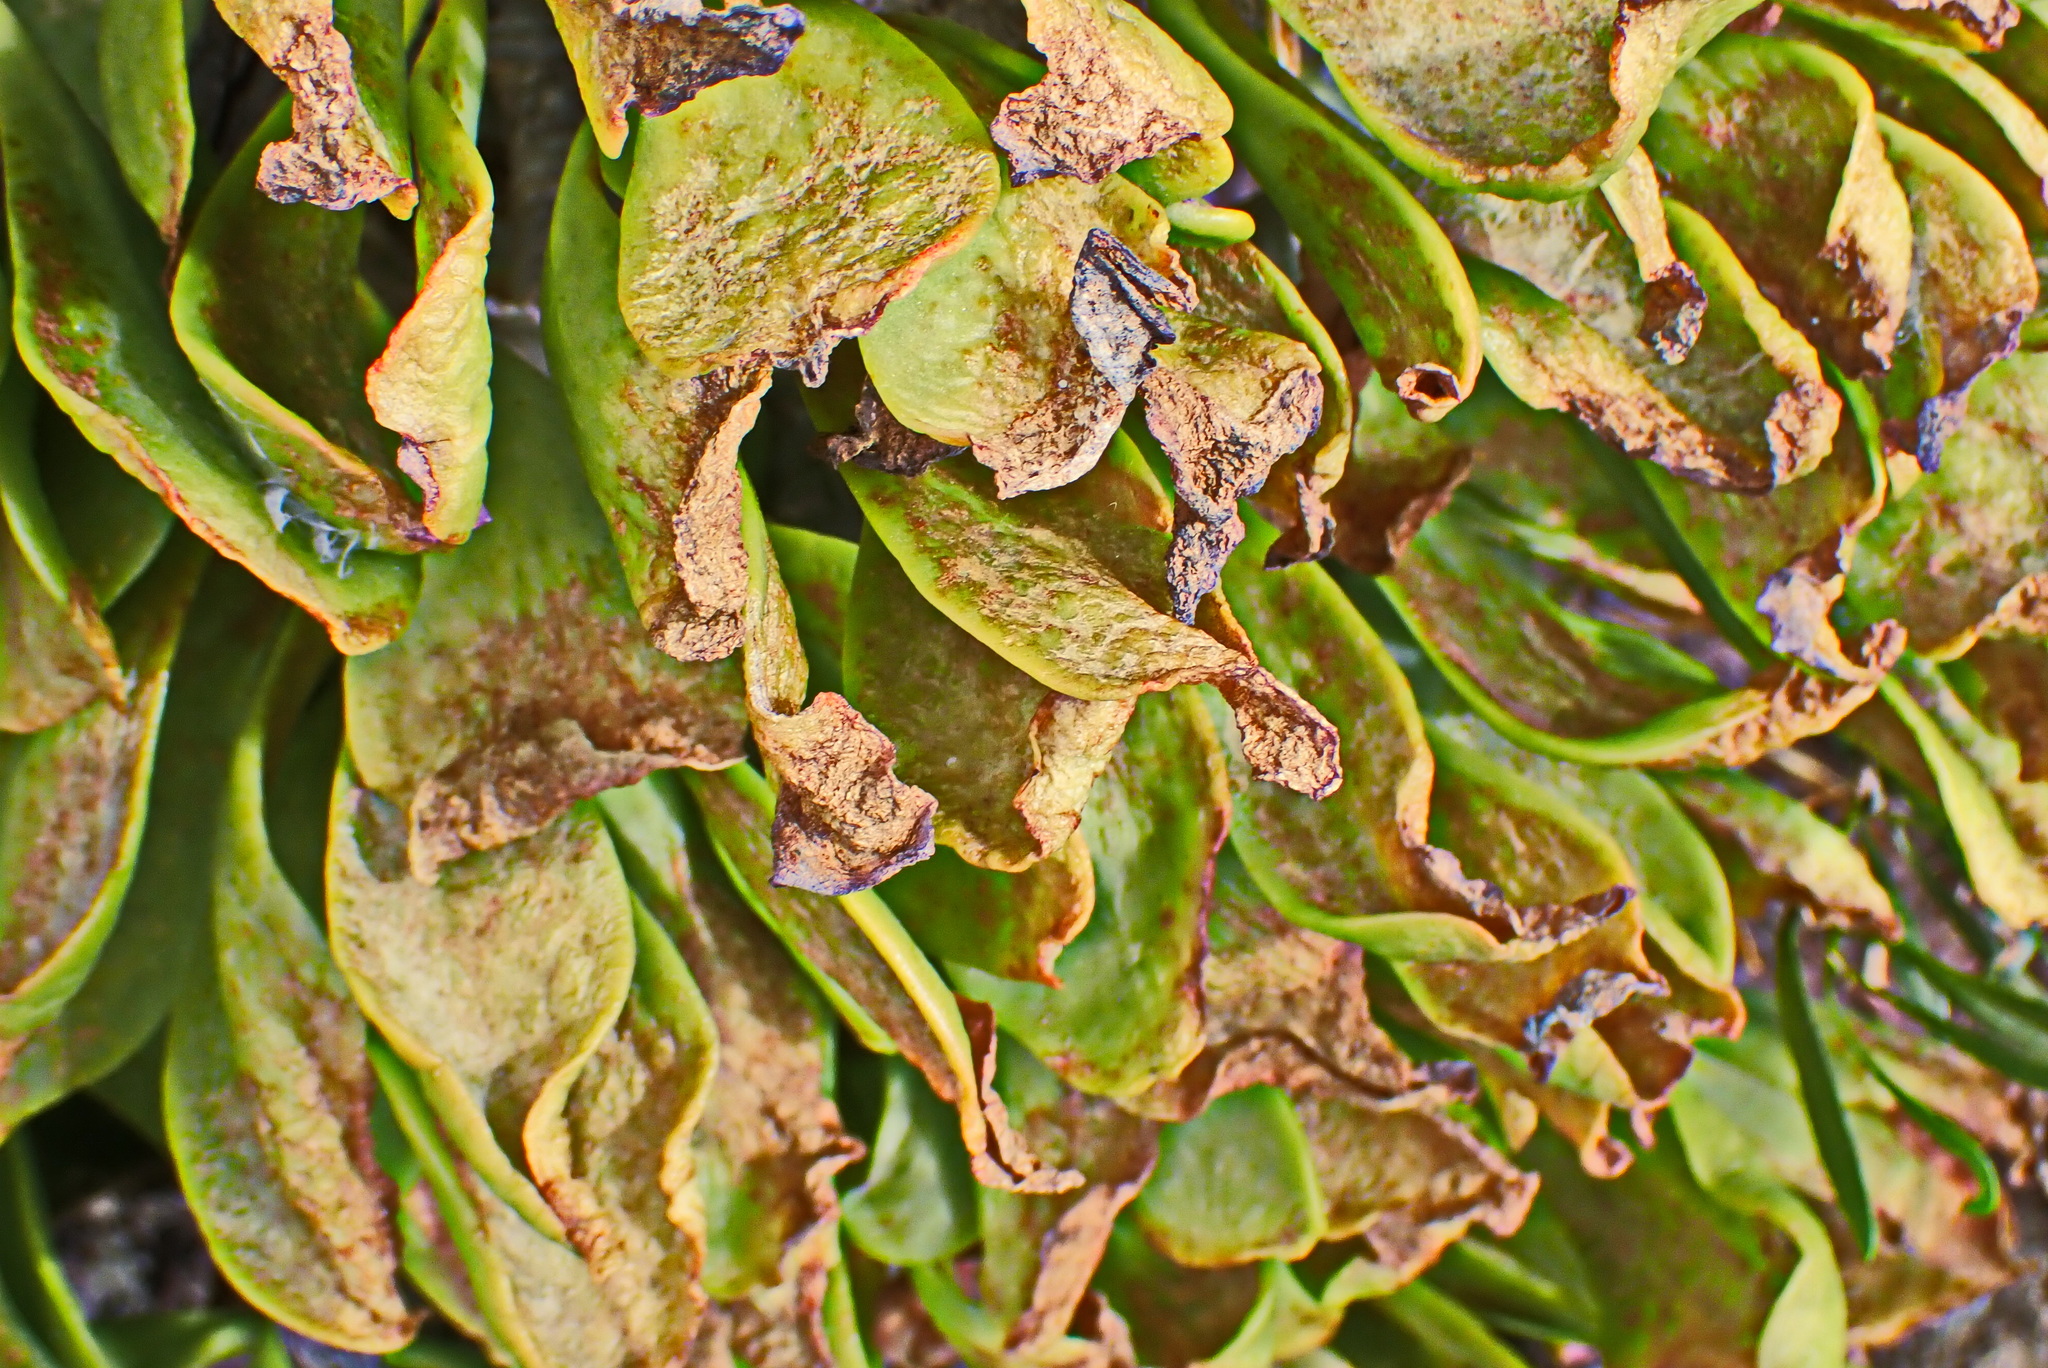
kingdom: Plantae
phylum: Tracheophyta
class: Magnoliopsida
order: Saxifragales
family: Crassulaceae
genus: Tylecodon
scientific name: Tylecodon paniculatus
